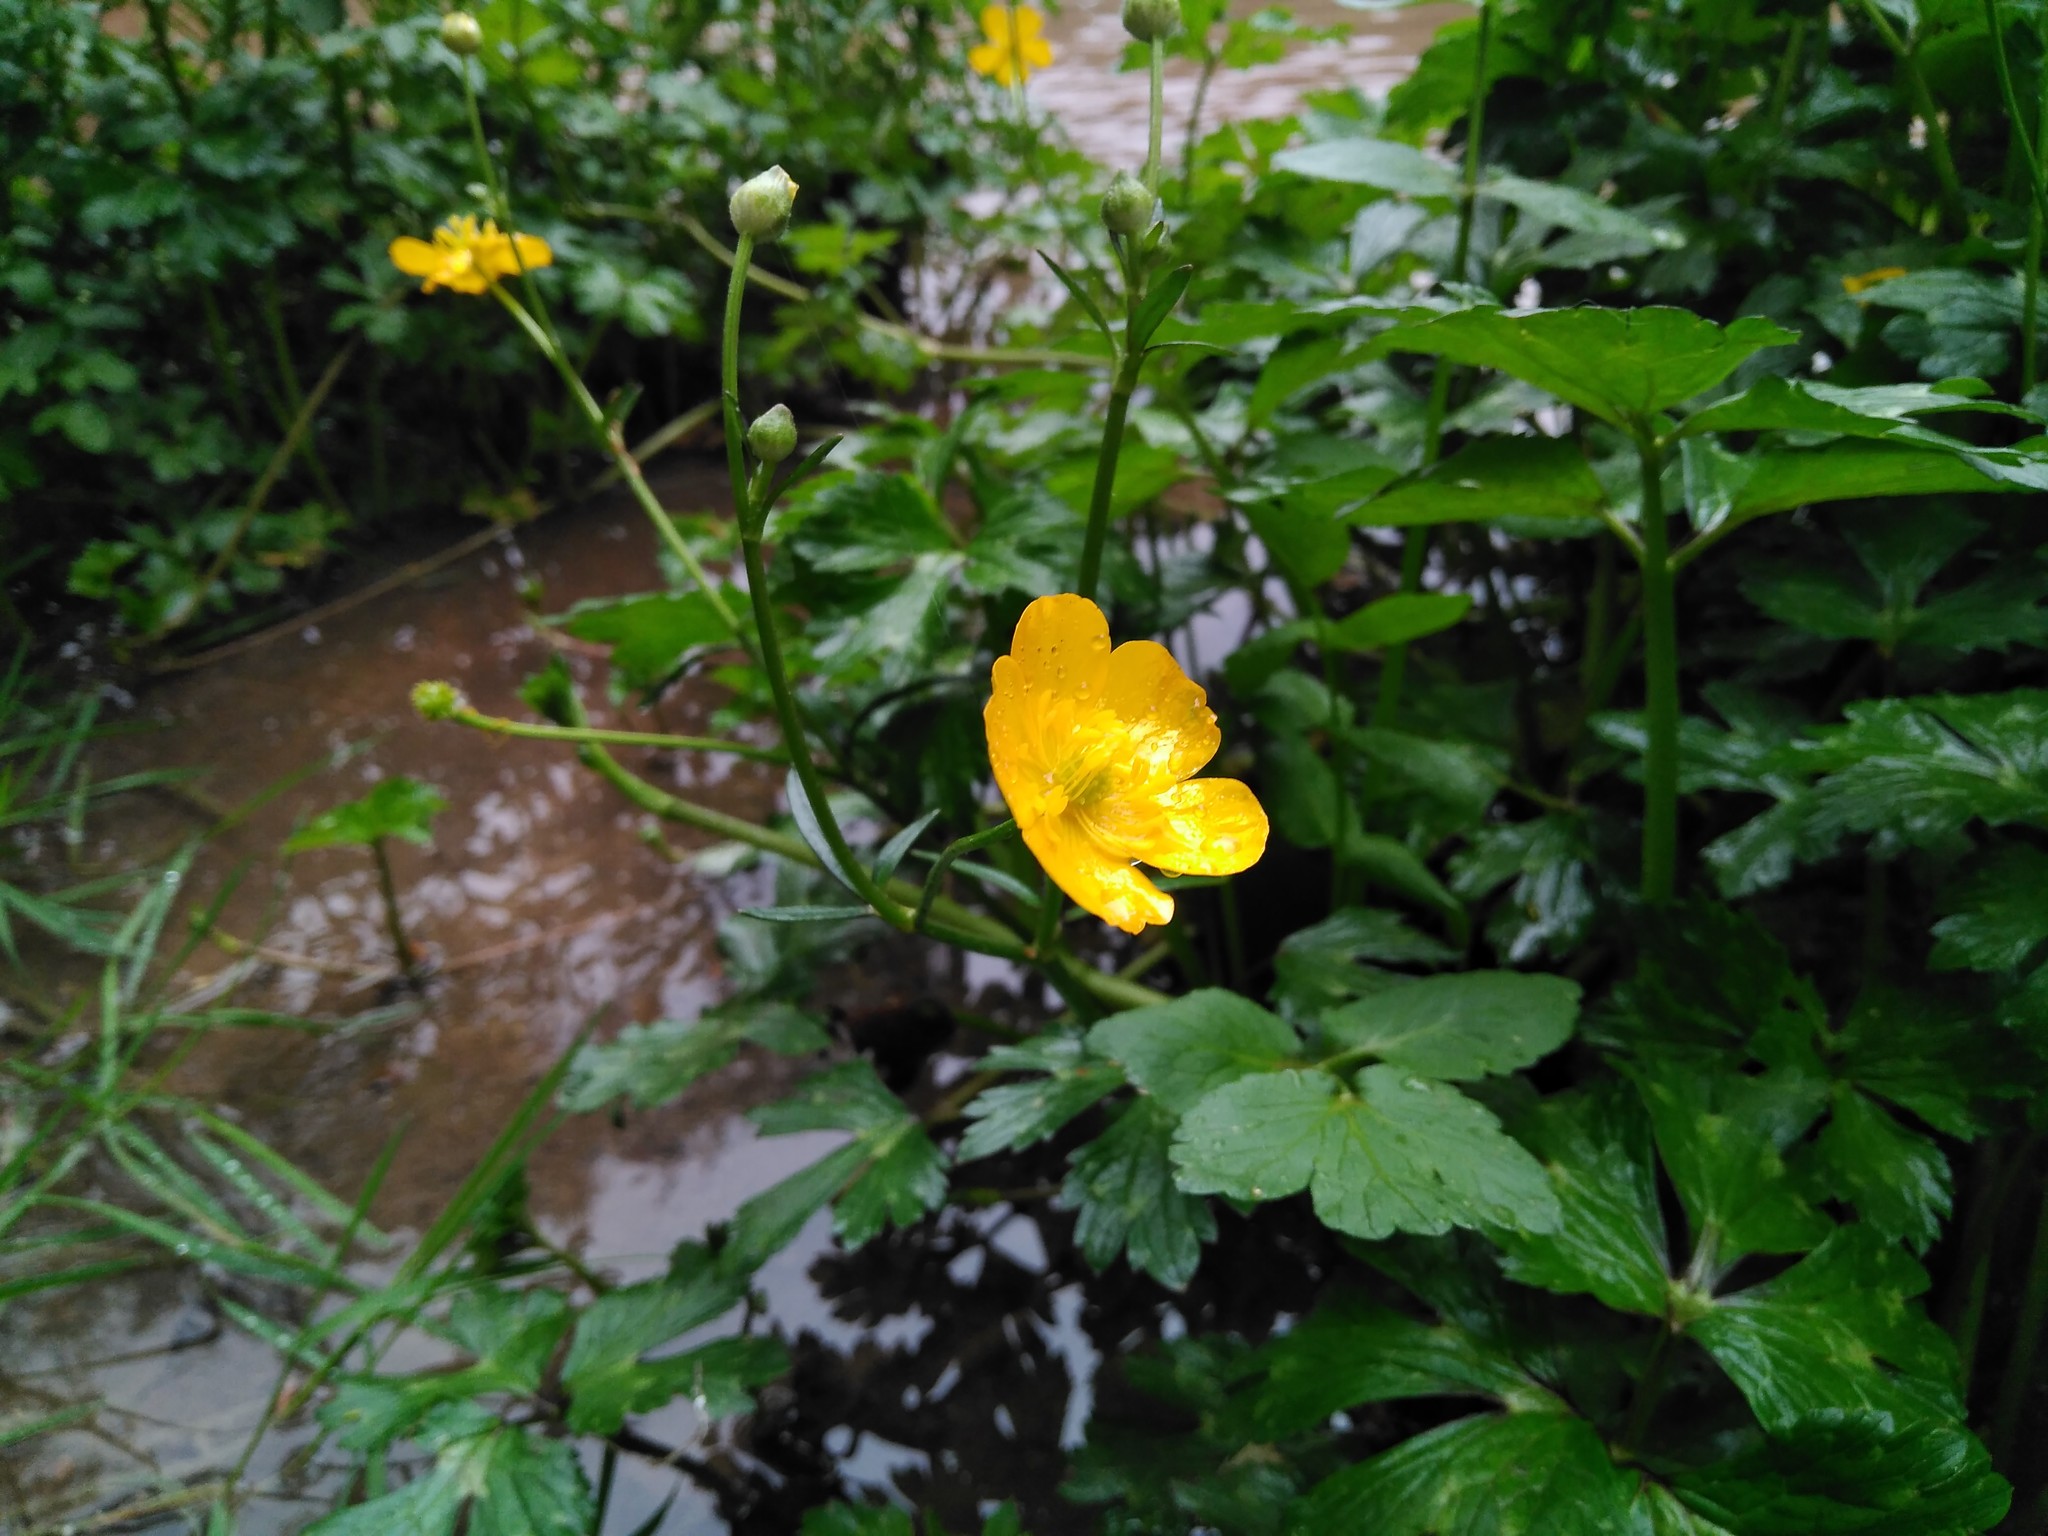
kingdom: Plantae
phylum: Tracheophyta
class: Magnoliopsida
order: Ranunculales
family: Ranunculaceae
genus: Ranunculus
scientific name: Ranunculus repens
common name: Creeping buttercup
